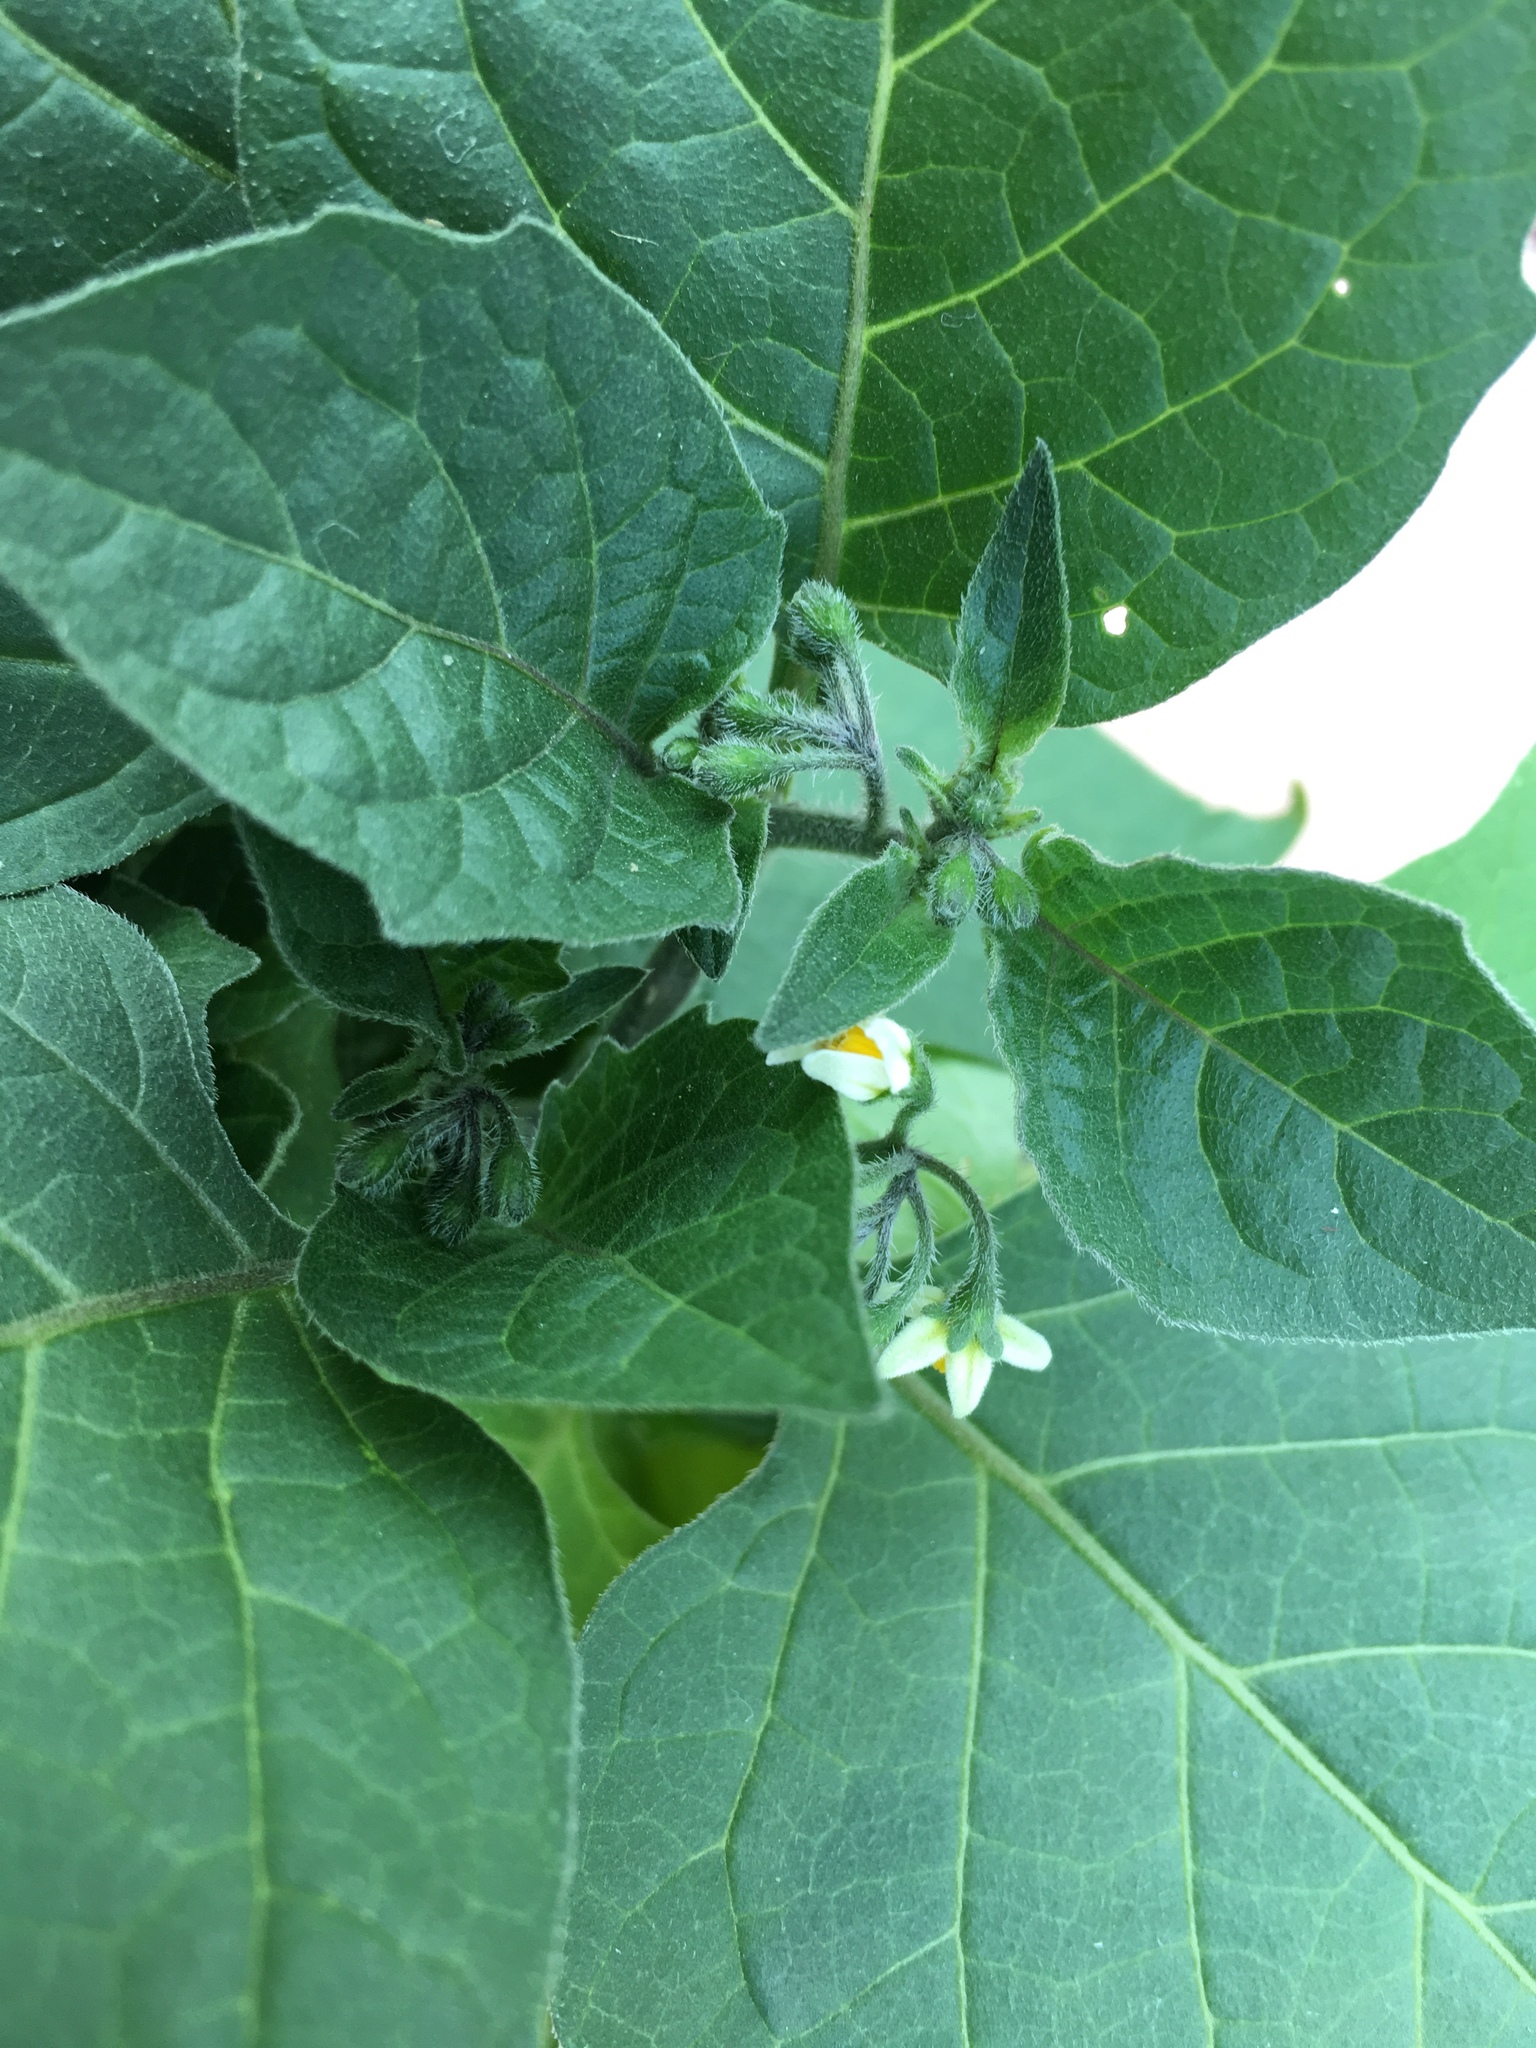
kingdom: Plantae
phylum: Tracheophyta
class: Magnoliopsida
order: Solanales
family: Solanaceae
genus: Solanum
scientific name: Solanum nigrum
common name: Black nightshade
